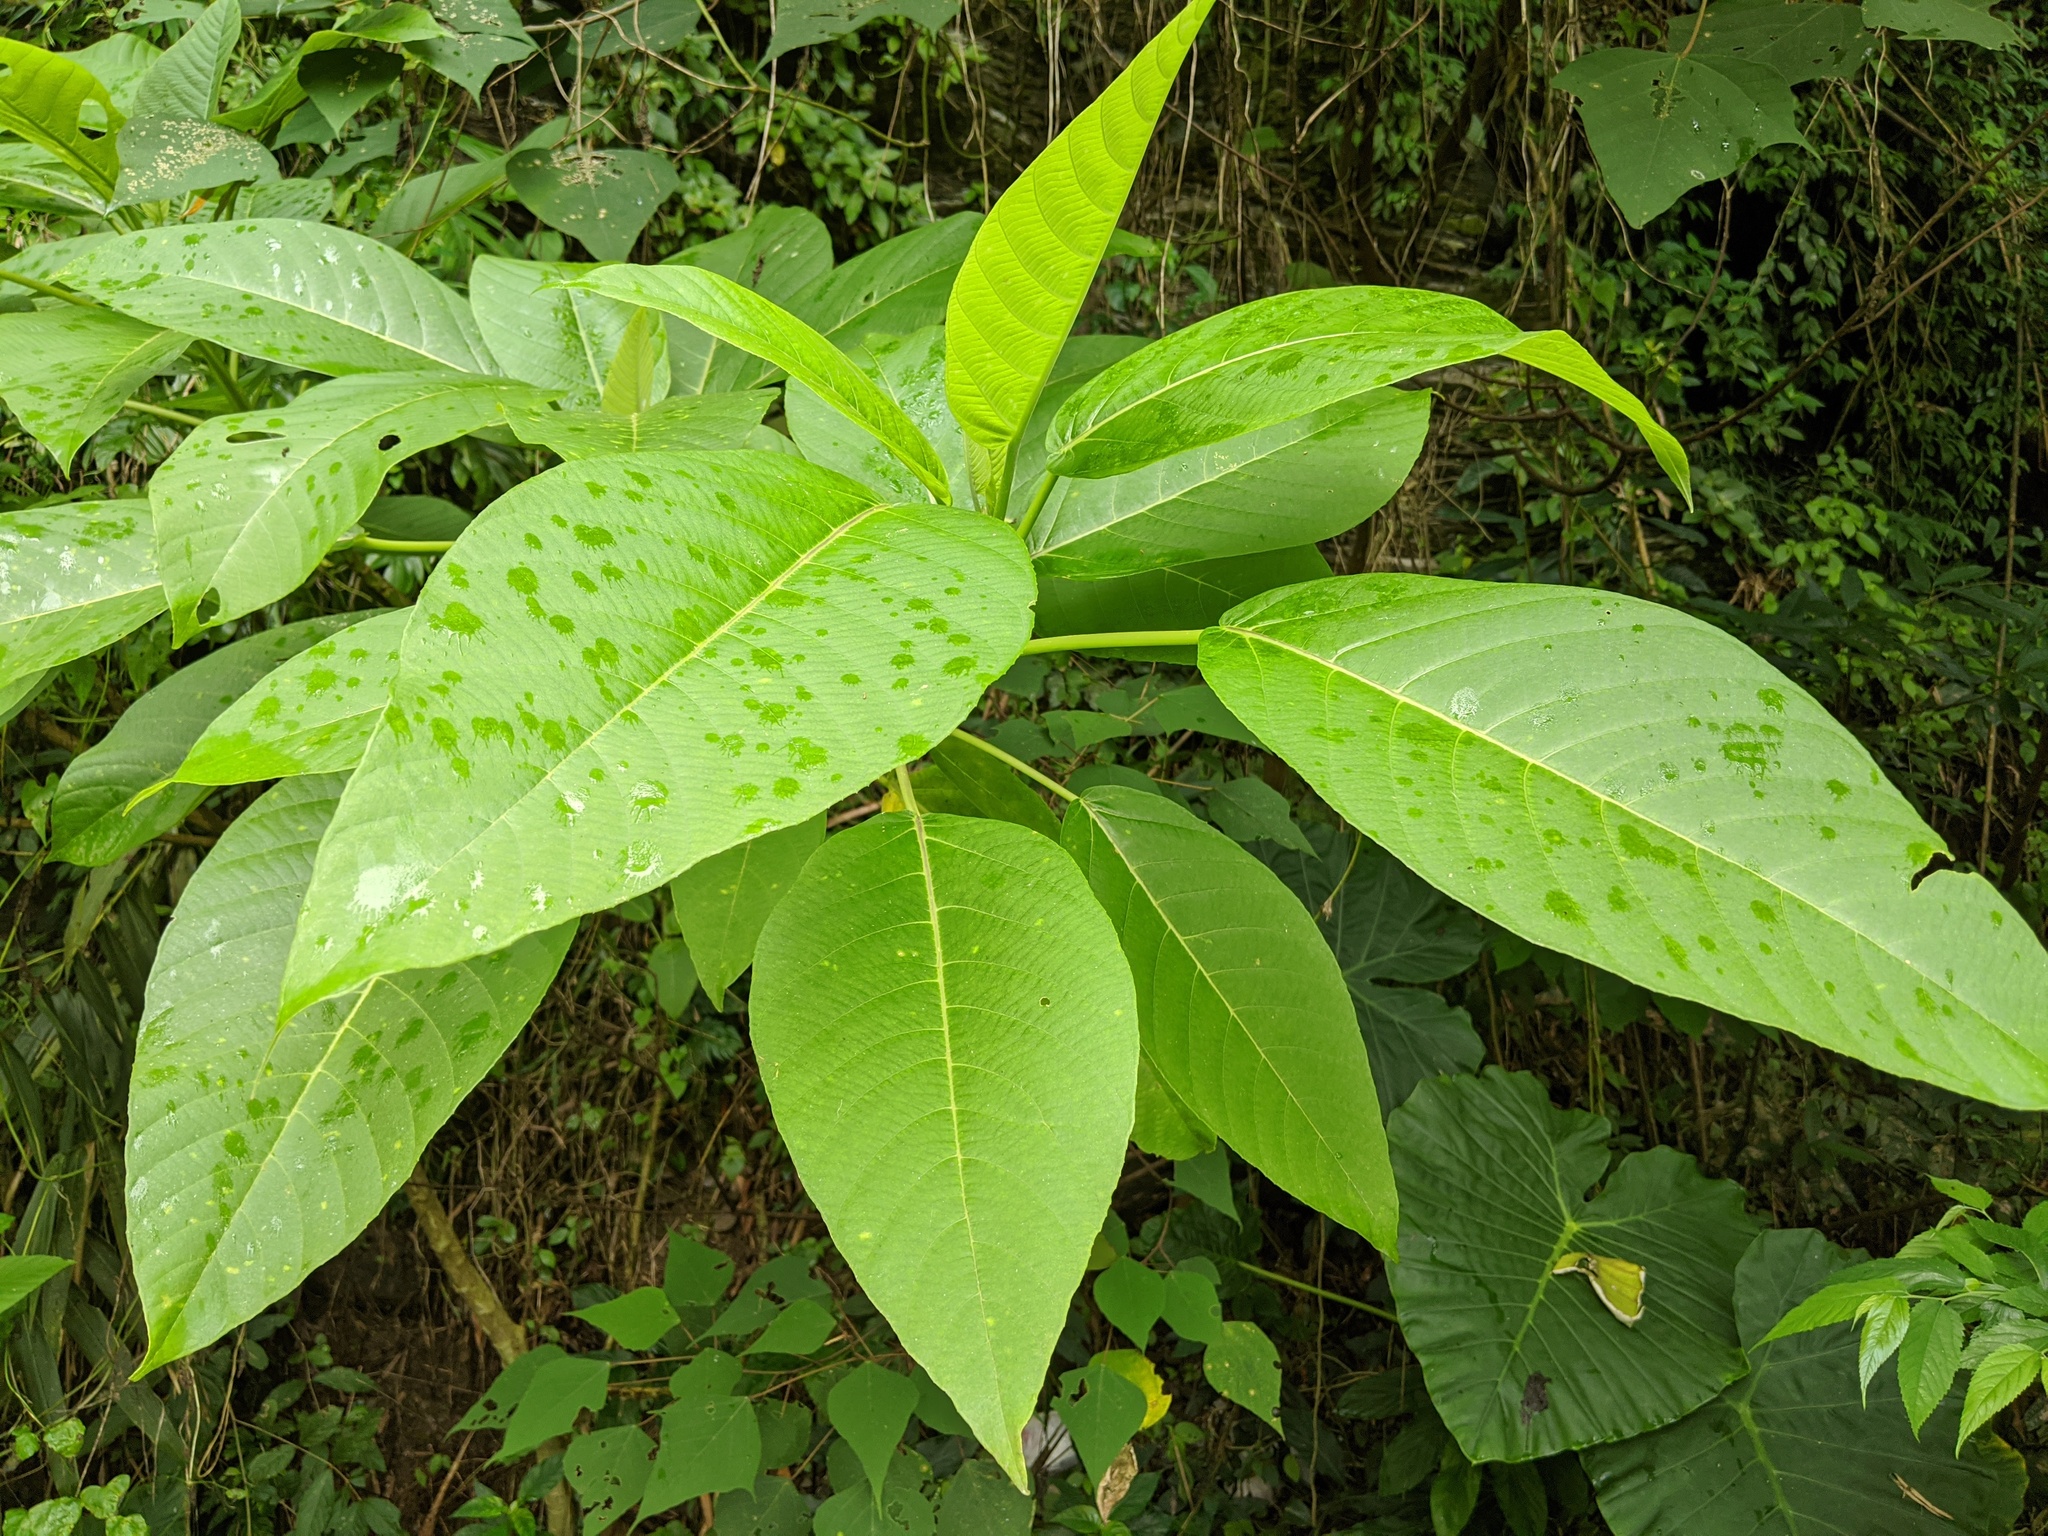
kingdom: Plantae
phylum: Tracheophyta
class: Magnoliopsida
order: Rosales
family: Urticaceae
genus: Dendrocnide
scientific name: Dendrocnide meyeniana
